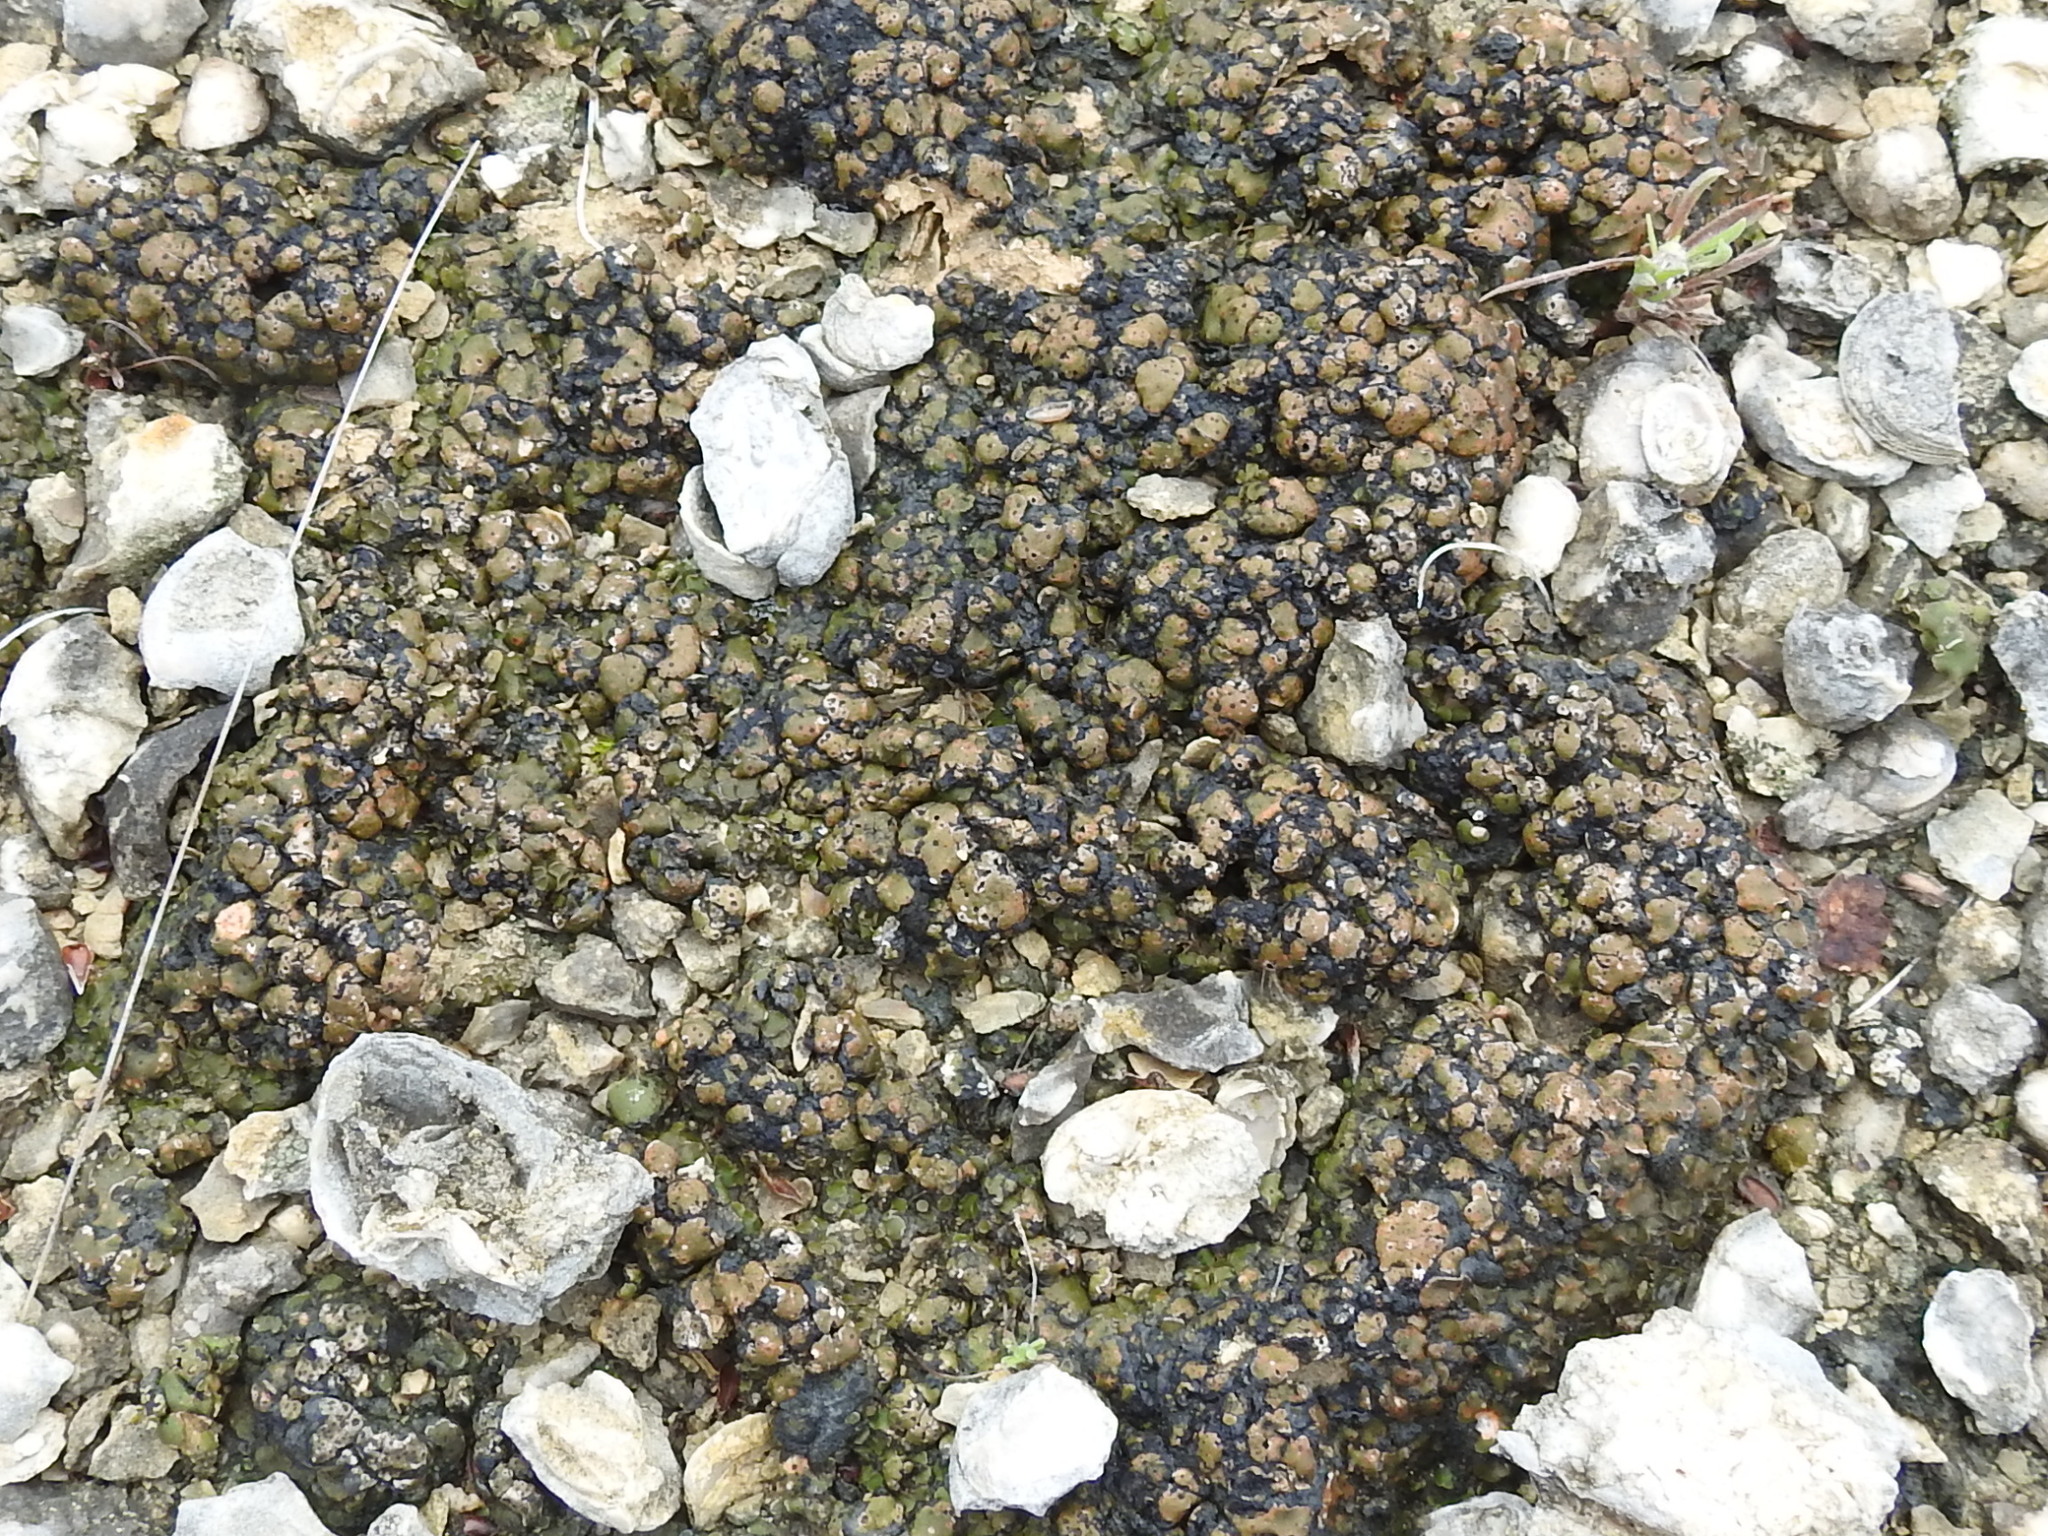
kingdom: Fungi
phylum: Ascomycota
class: Eurotiomycetes
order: Verrucariales
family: Verrucariaceae
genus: Clavascidium
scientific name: Clavascidium lacinulatum
